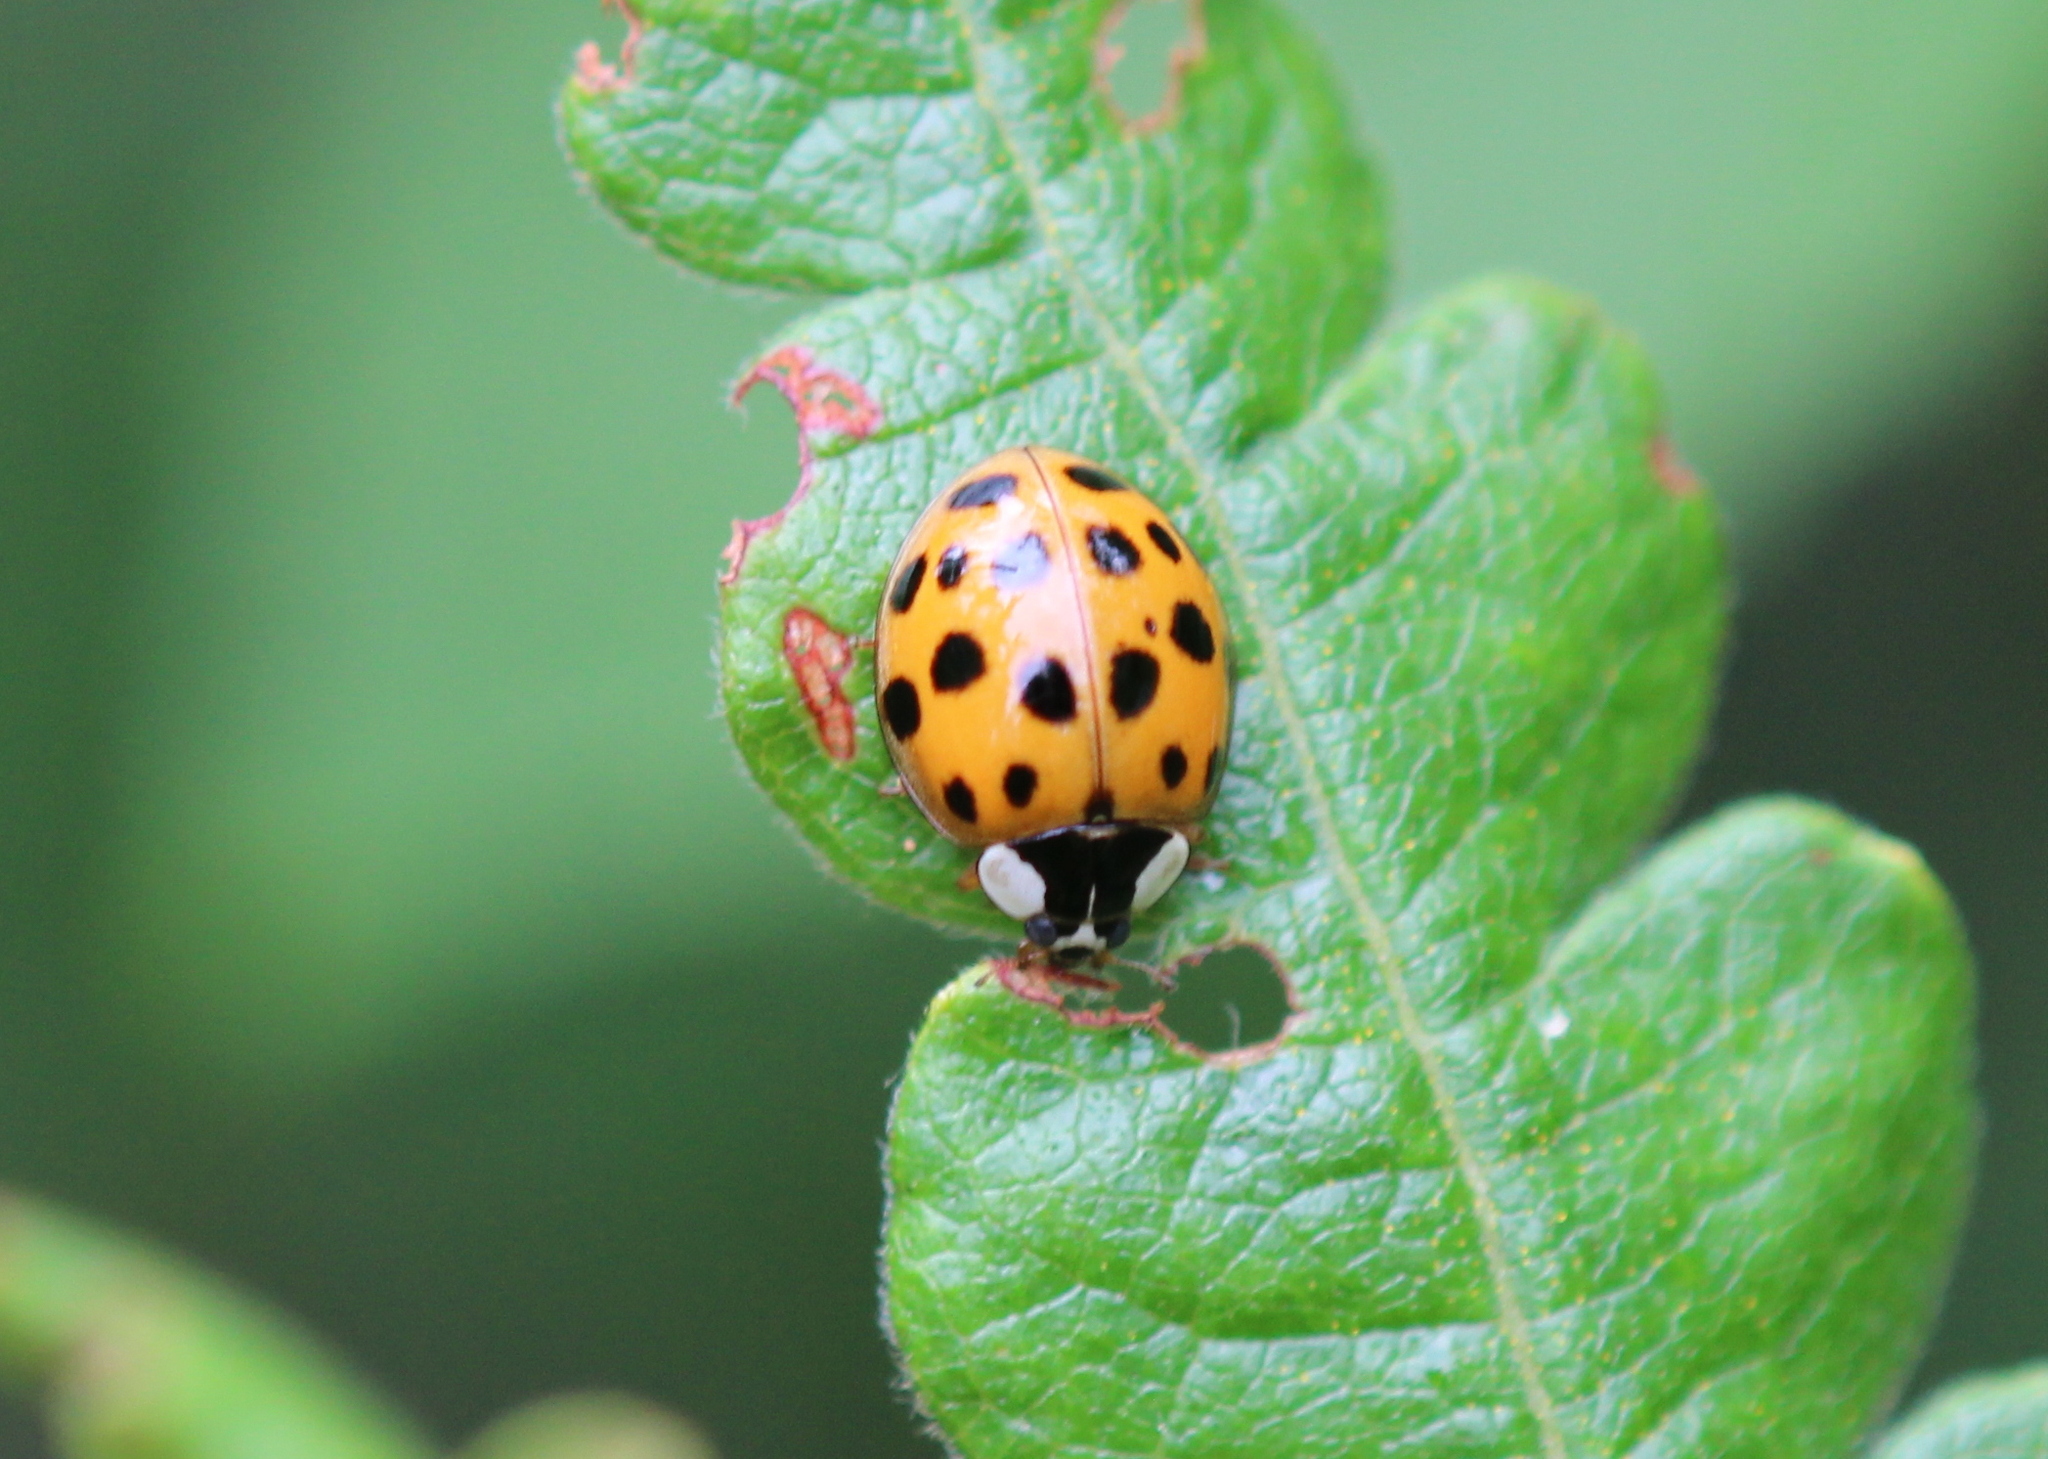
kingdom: Animalia
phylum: Arthropoda
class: Insecta
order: Coleoptera
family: Coccinellidae
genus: Harmonia
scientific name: Harmonia axyridis
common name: Harlequin ladybird
